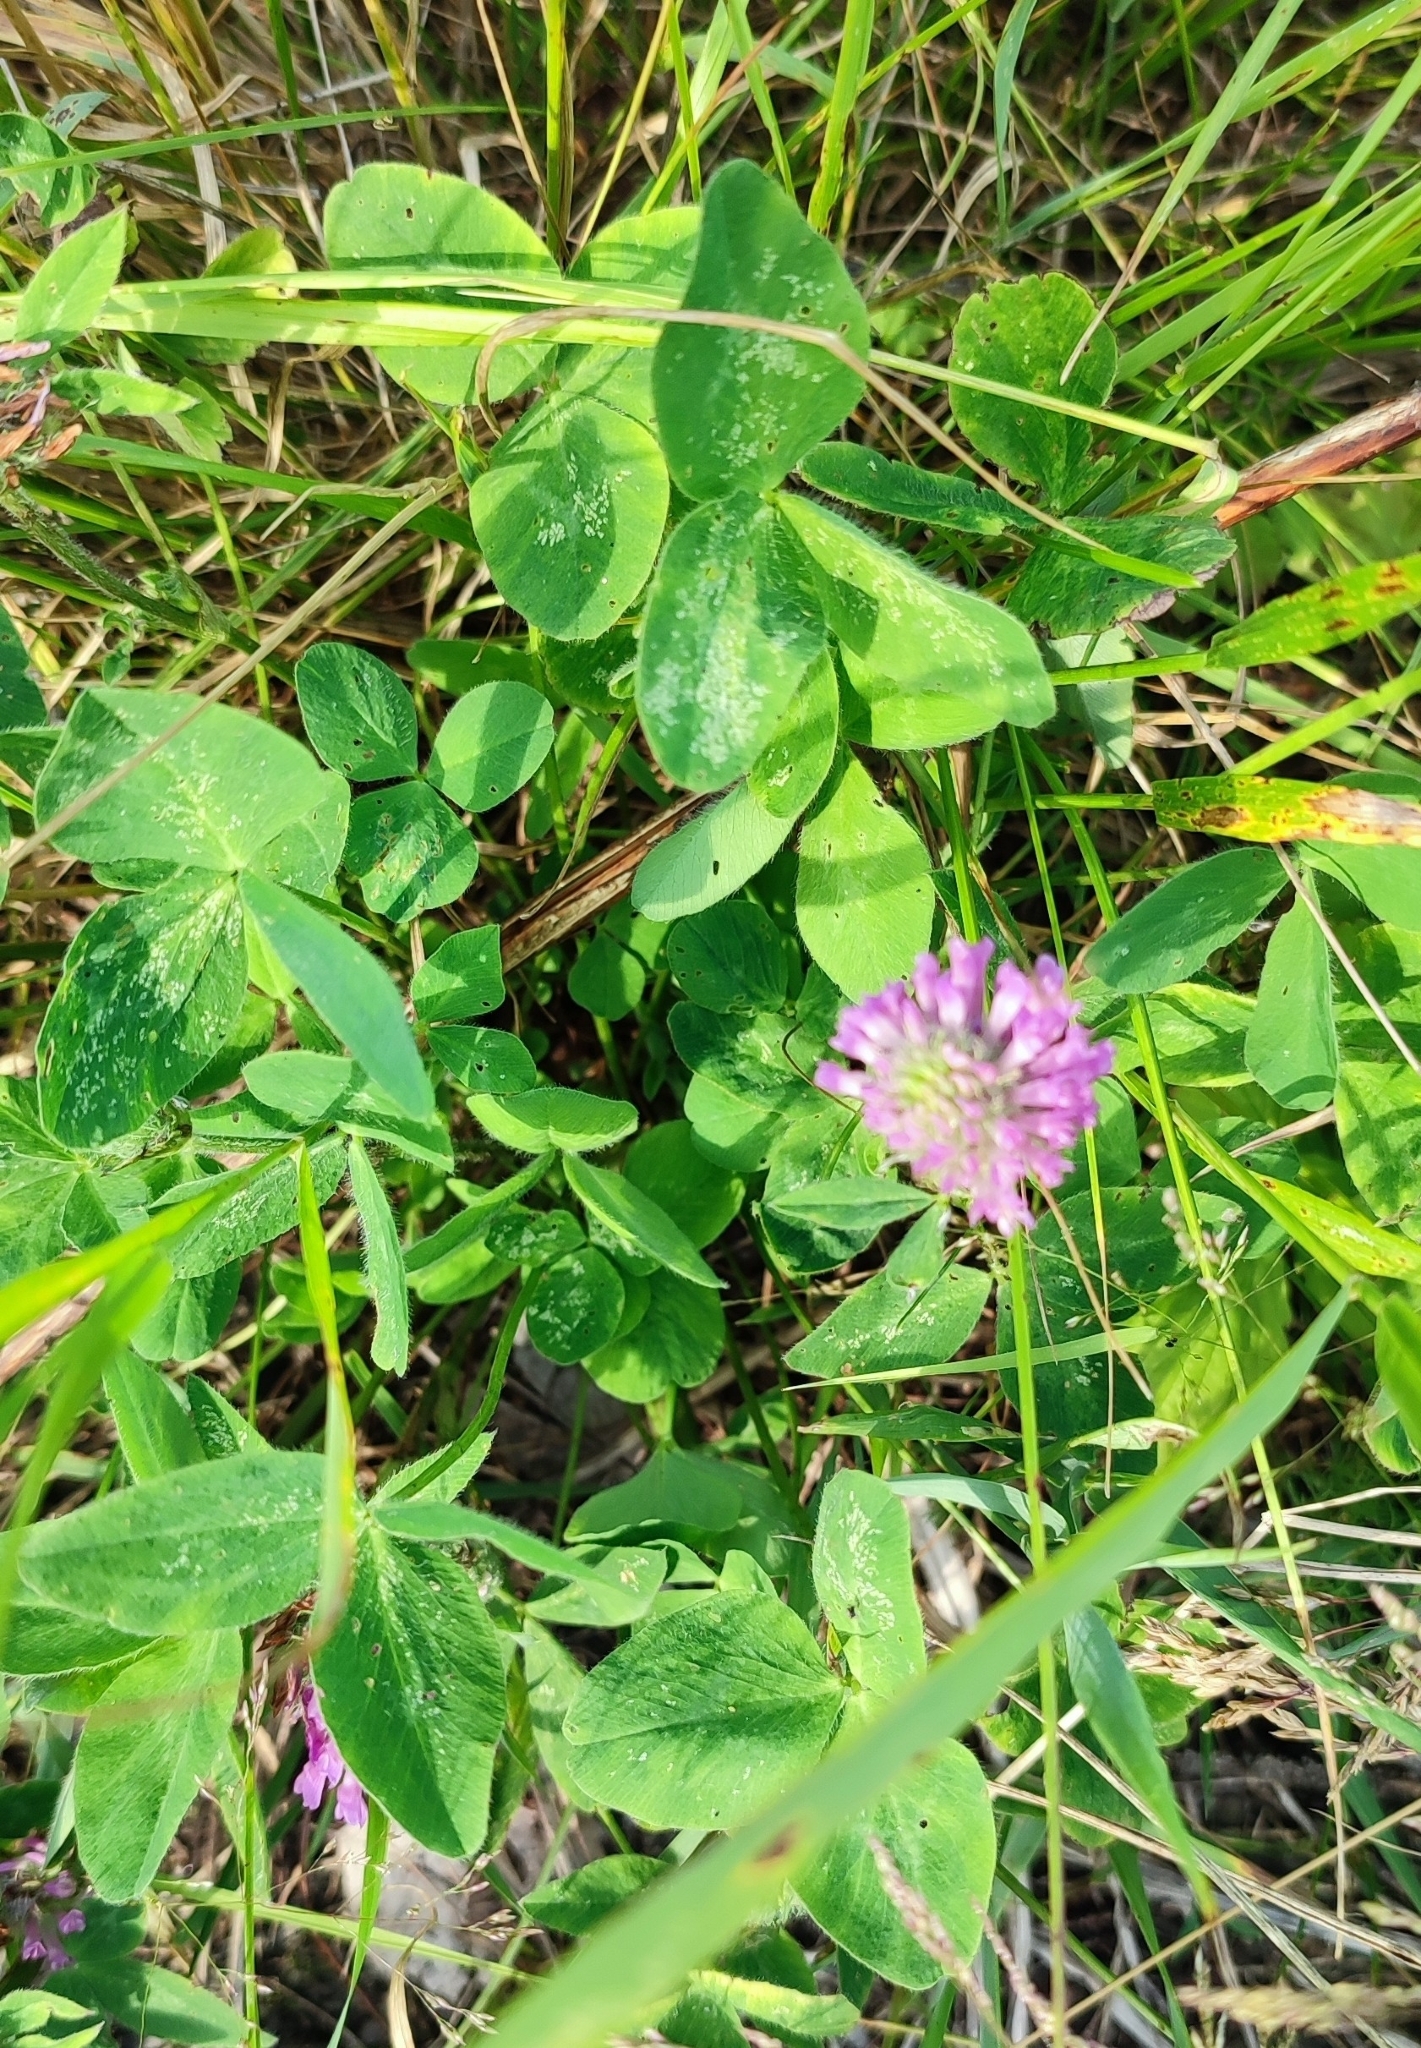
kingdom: Plantae
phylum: Tracheophyta
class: Magnoliopsida
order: Fabales
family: Fabaceae
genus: Trifolium
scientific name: Trifolium pratense
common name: Red clover
